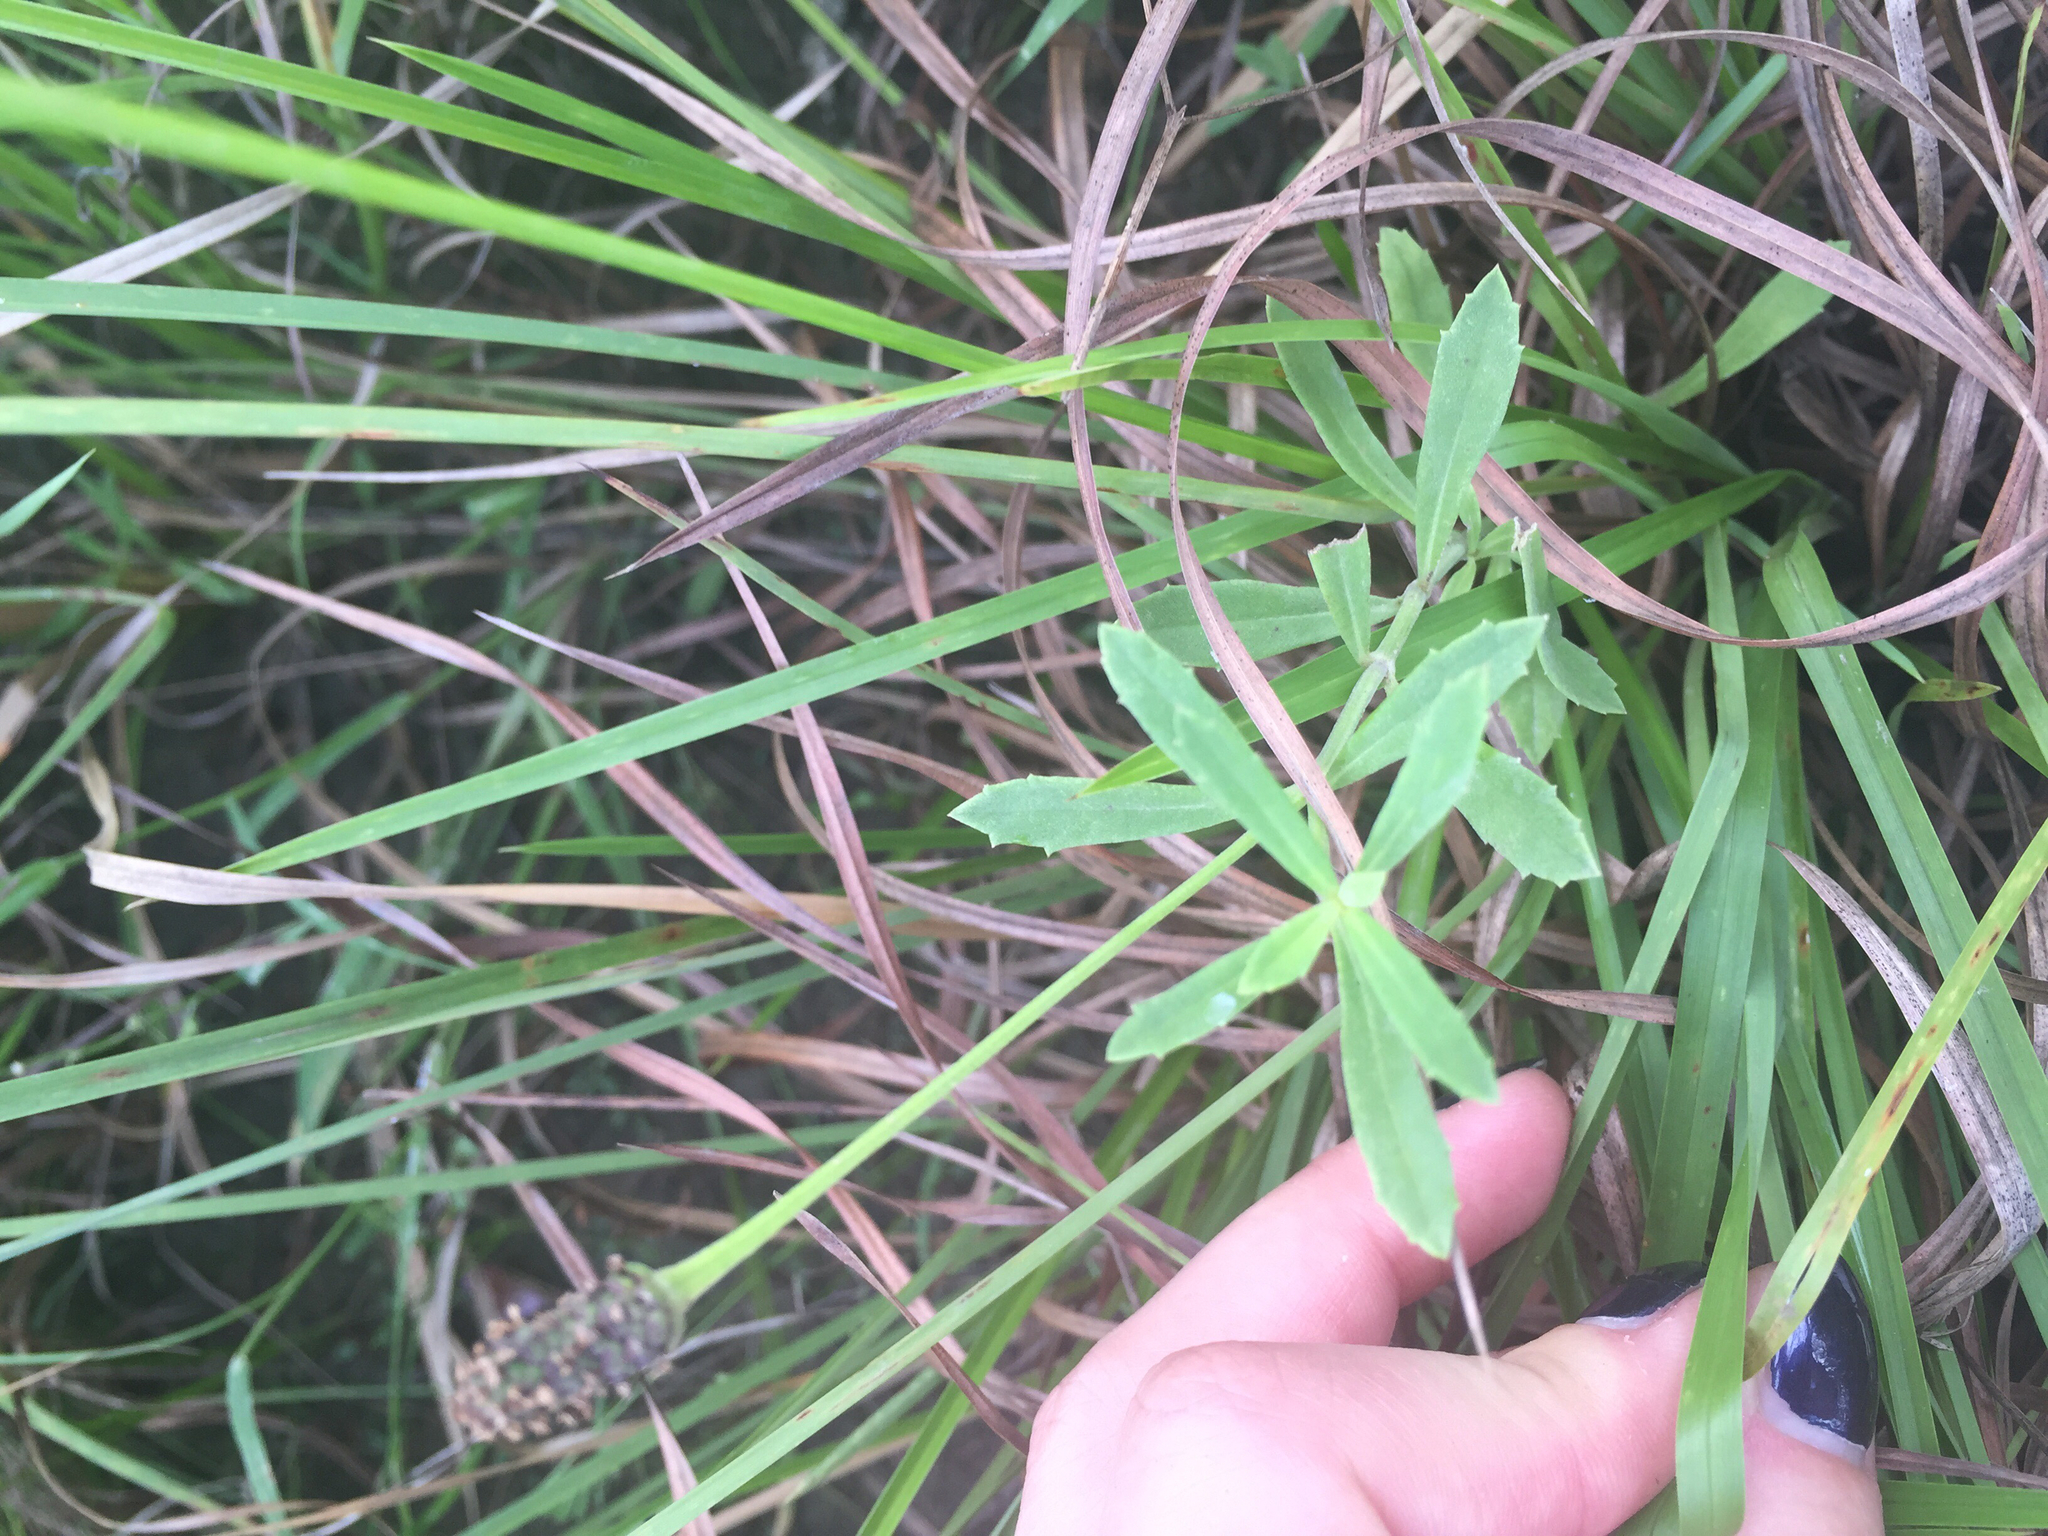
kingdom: Plantae
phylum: Tracheophyta
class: Magnoliopsida
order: Lamiales
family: Verbenaceae
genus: Phyla
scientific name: Phyla nodiflora
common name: Frogfruit
